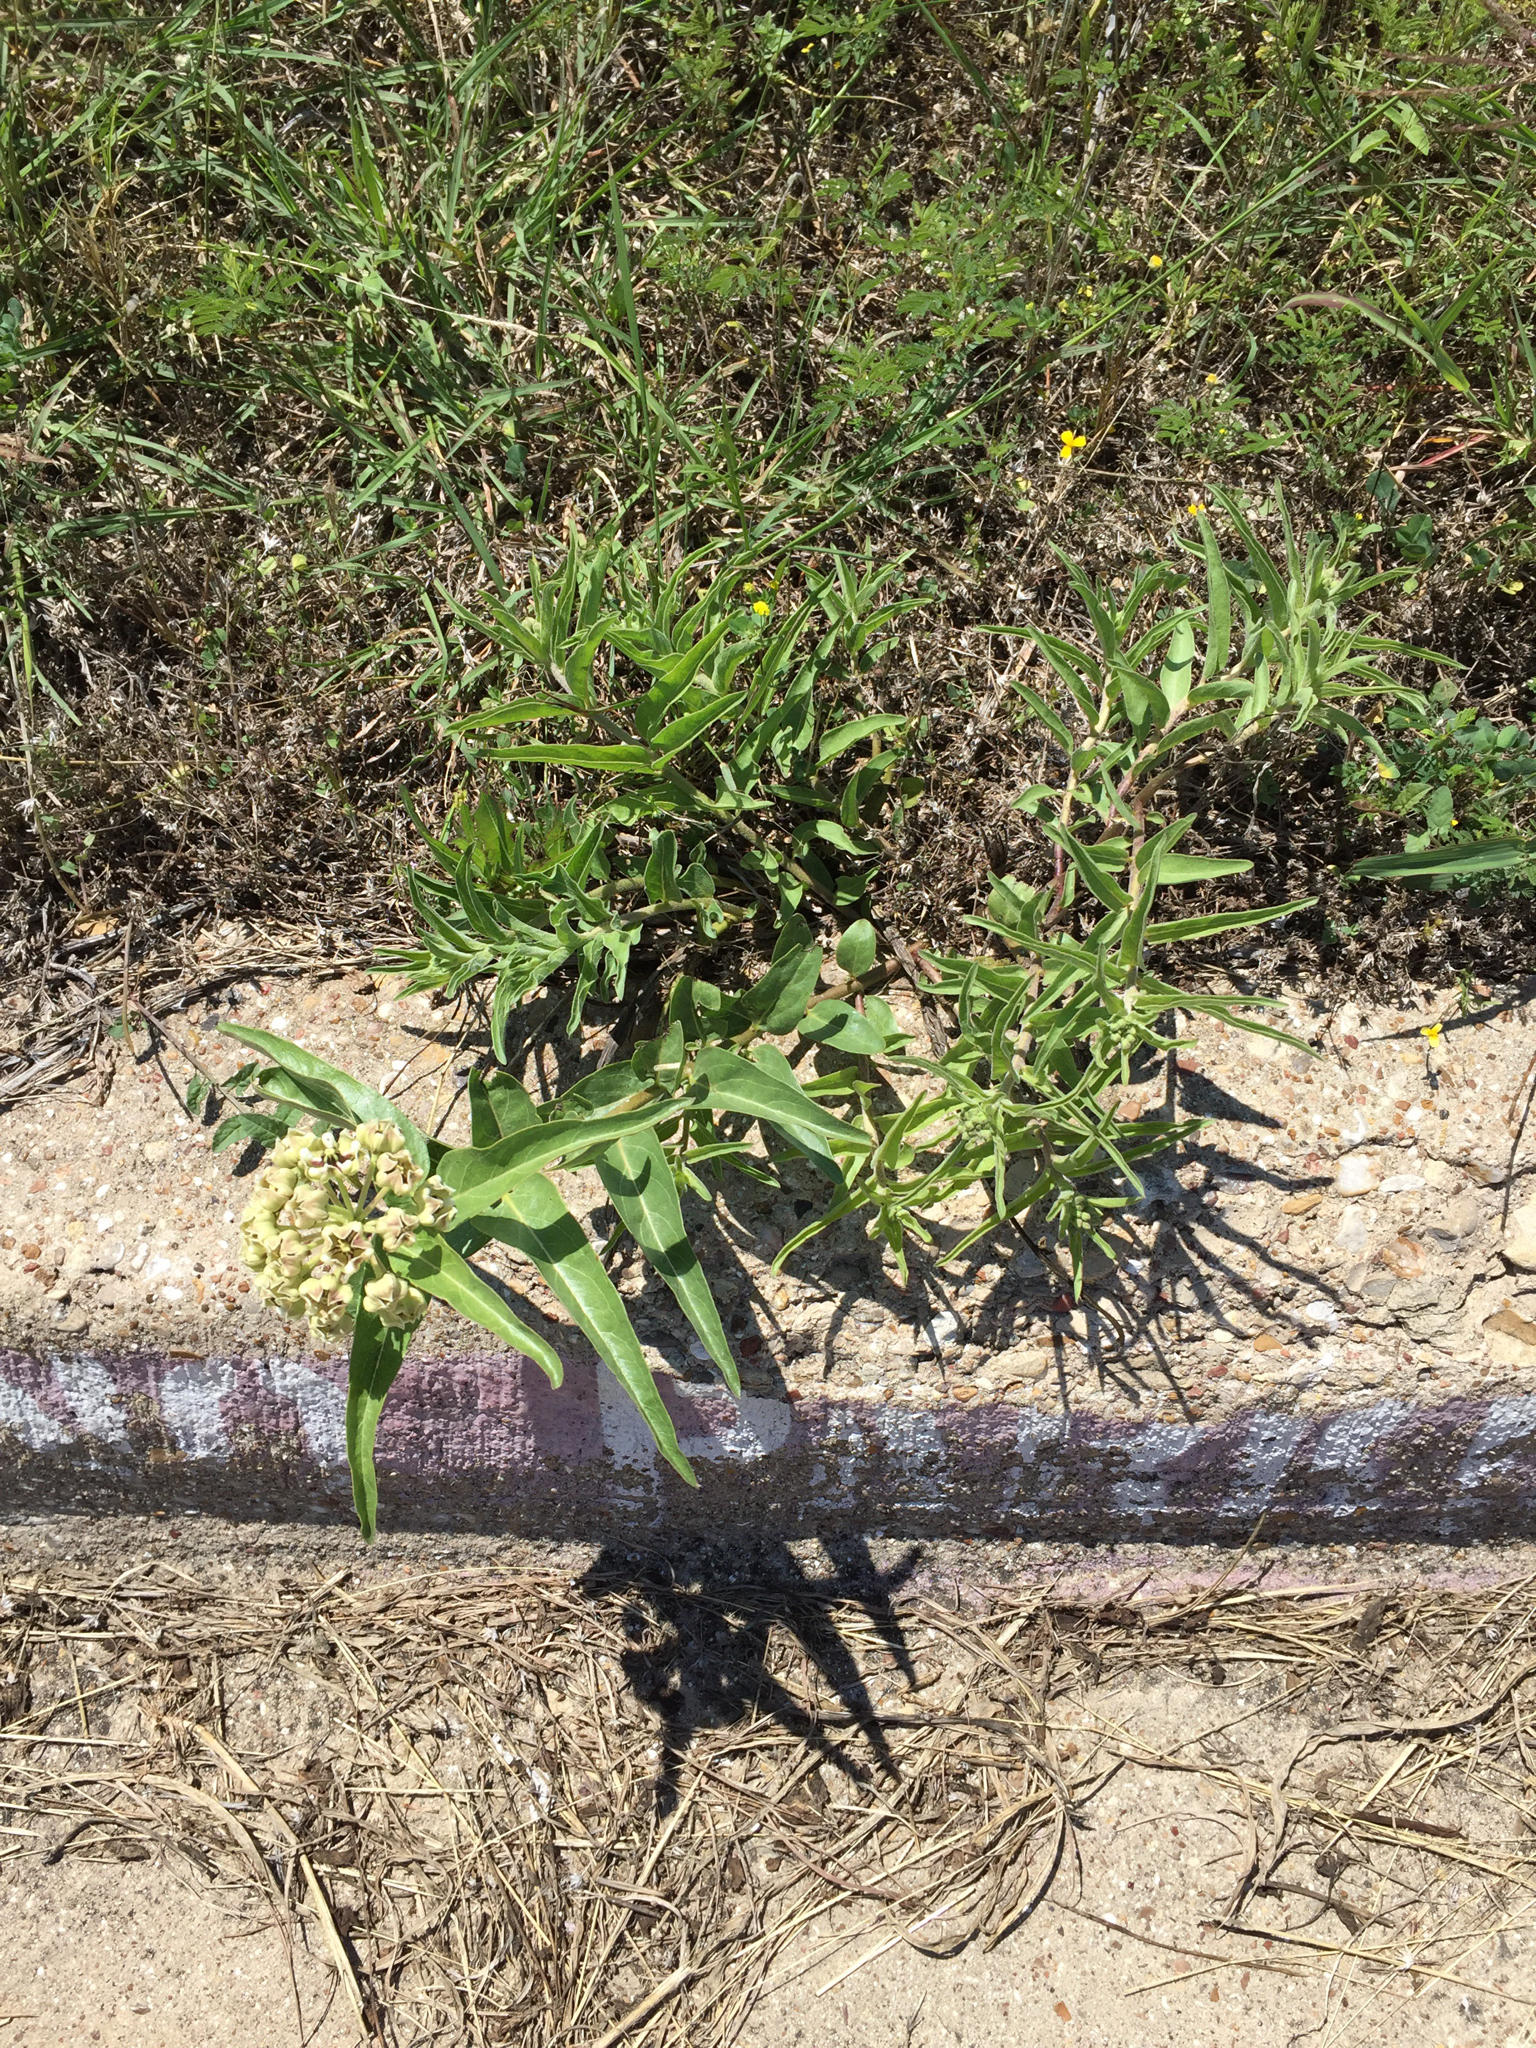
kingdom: Plantae
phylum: Tracheophyta
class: Magnoliopsida
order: Gentianales
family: Apocynaceae
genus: Asclepias
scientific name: Asclepias asperula
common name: Antelope horns
